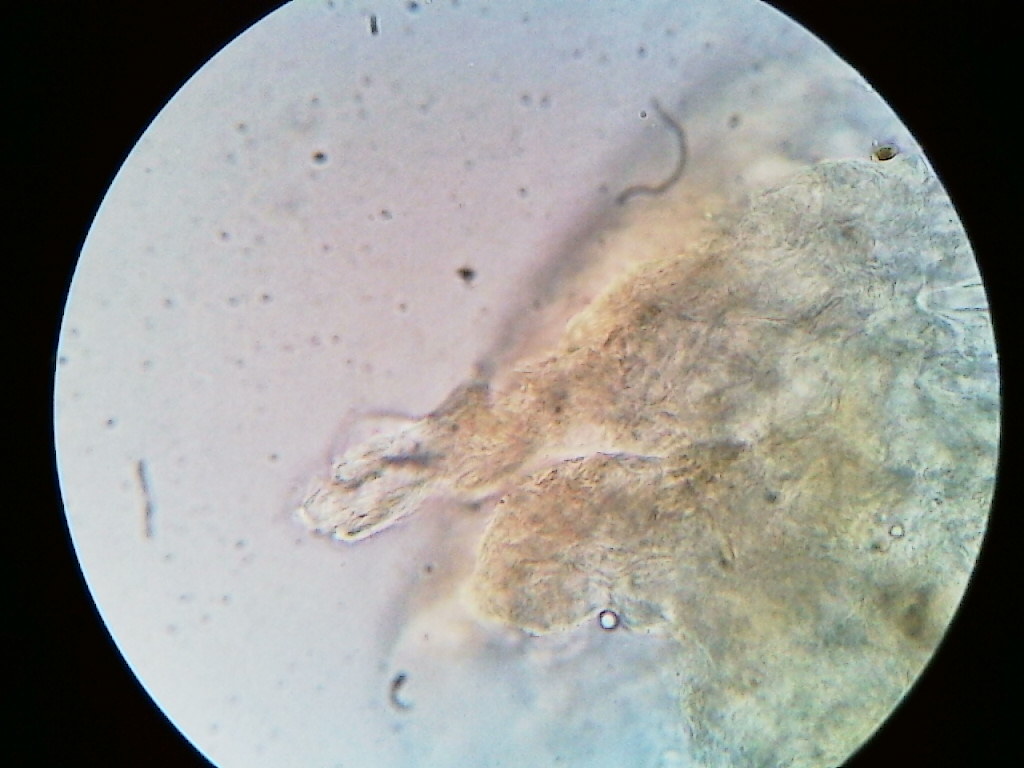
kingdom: Fungi
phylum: Basidiomycota
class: Agaricomycetes
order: Agaricales
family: Omphalotaceae
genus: Gymnopus
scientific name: Gymnopus earleae
